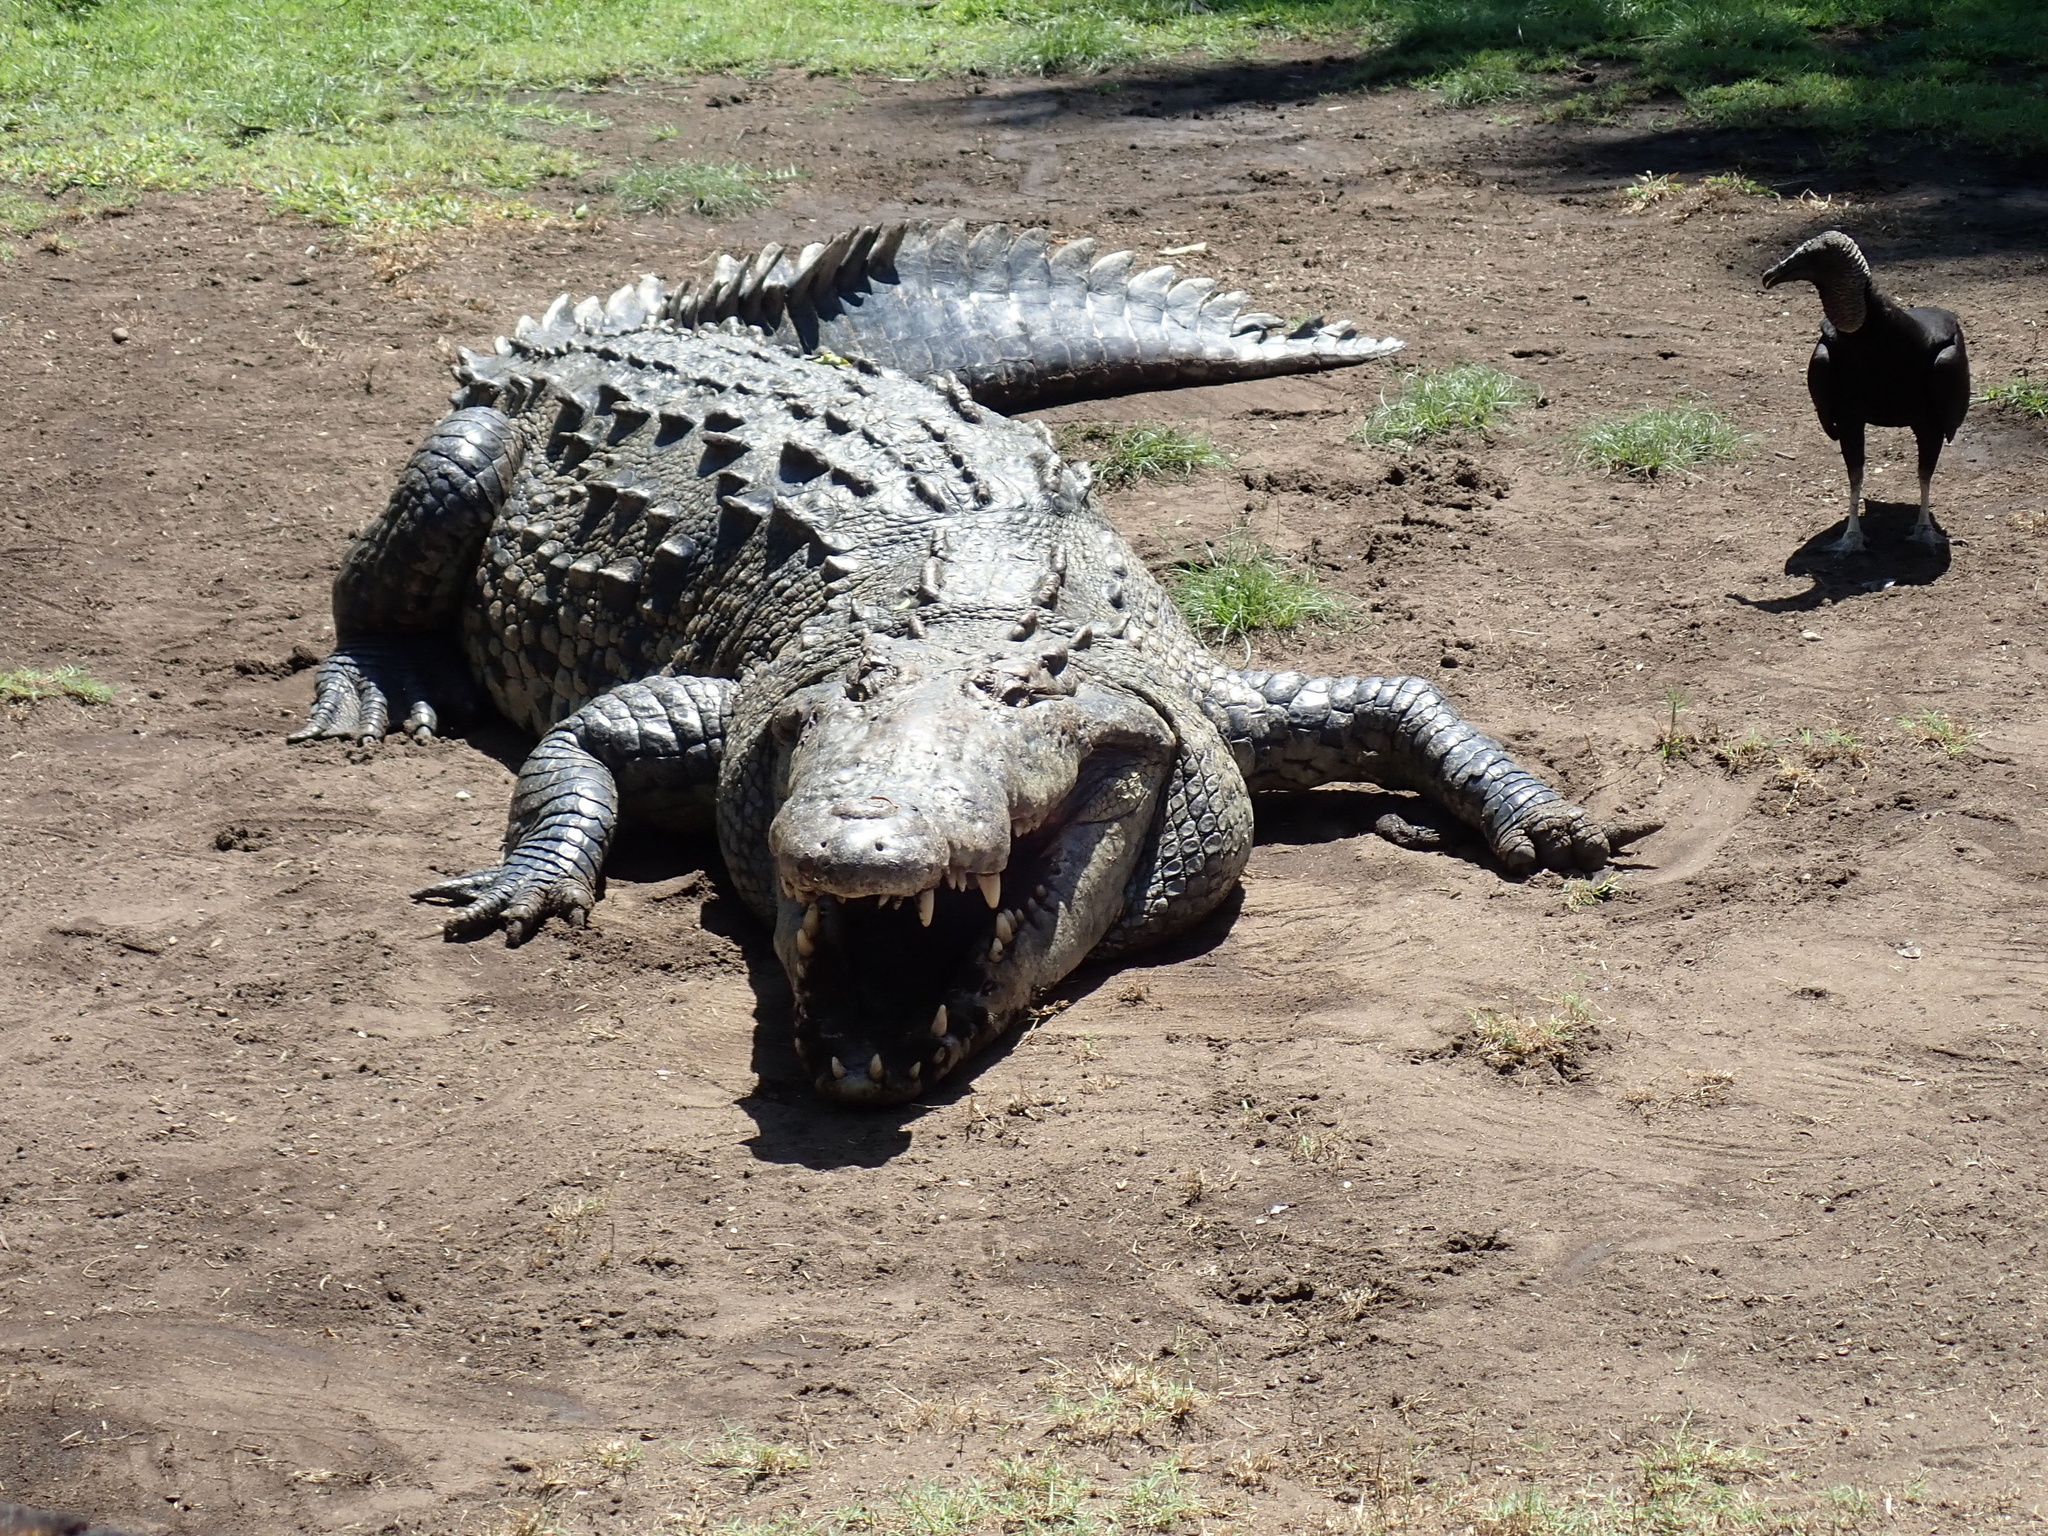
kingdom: Animalia
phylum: Chordata
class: Crocodylia
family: Crocodylidae
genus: Crocodylus
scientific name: Crocodylus acutus
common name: American crocodile
